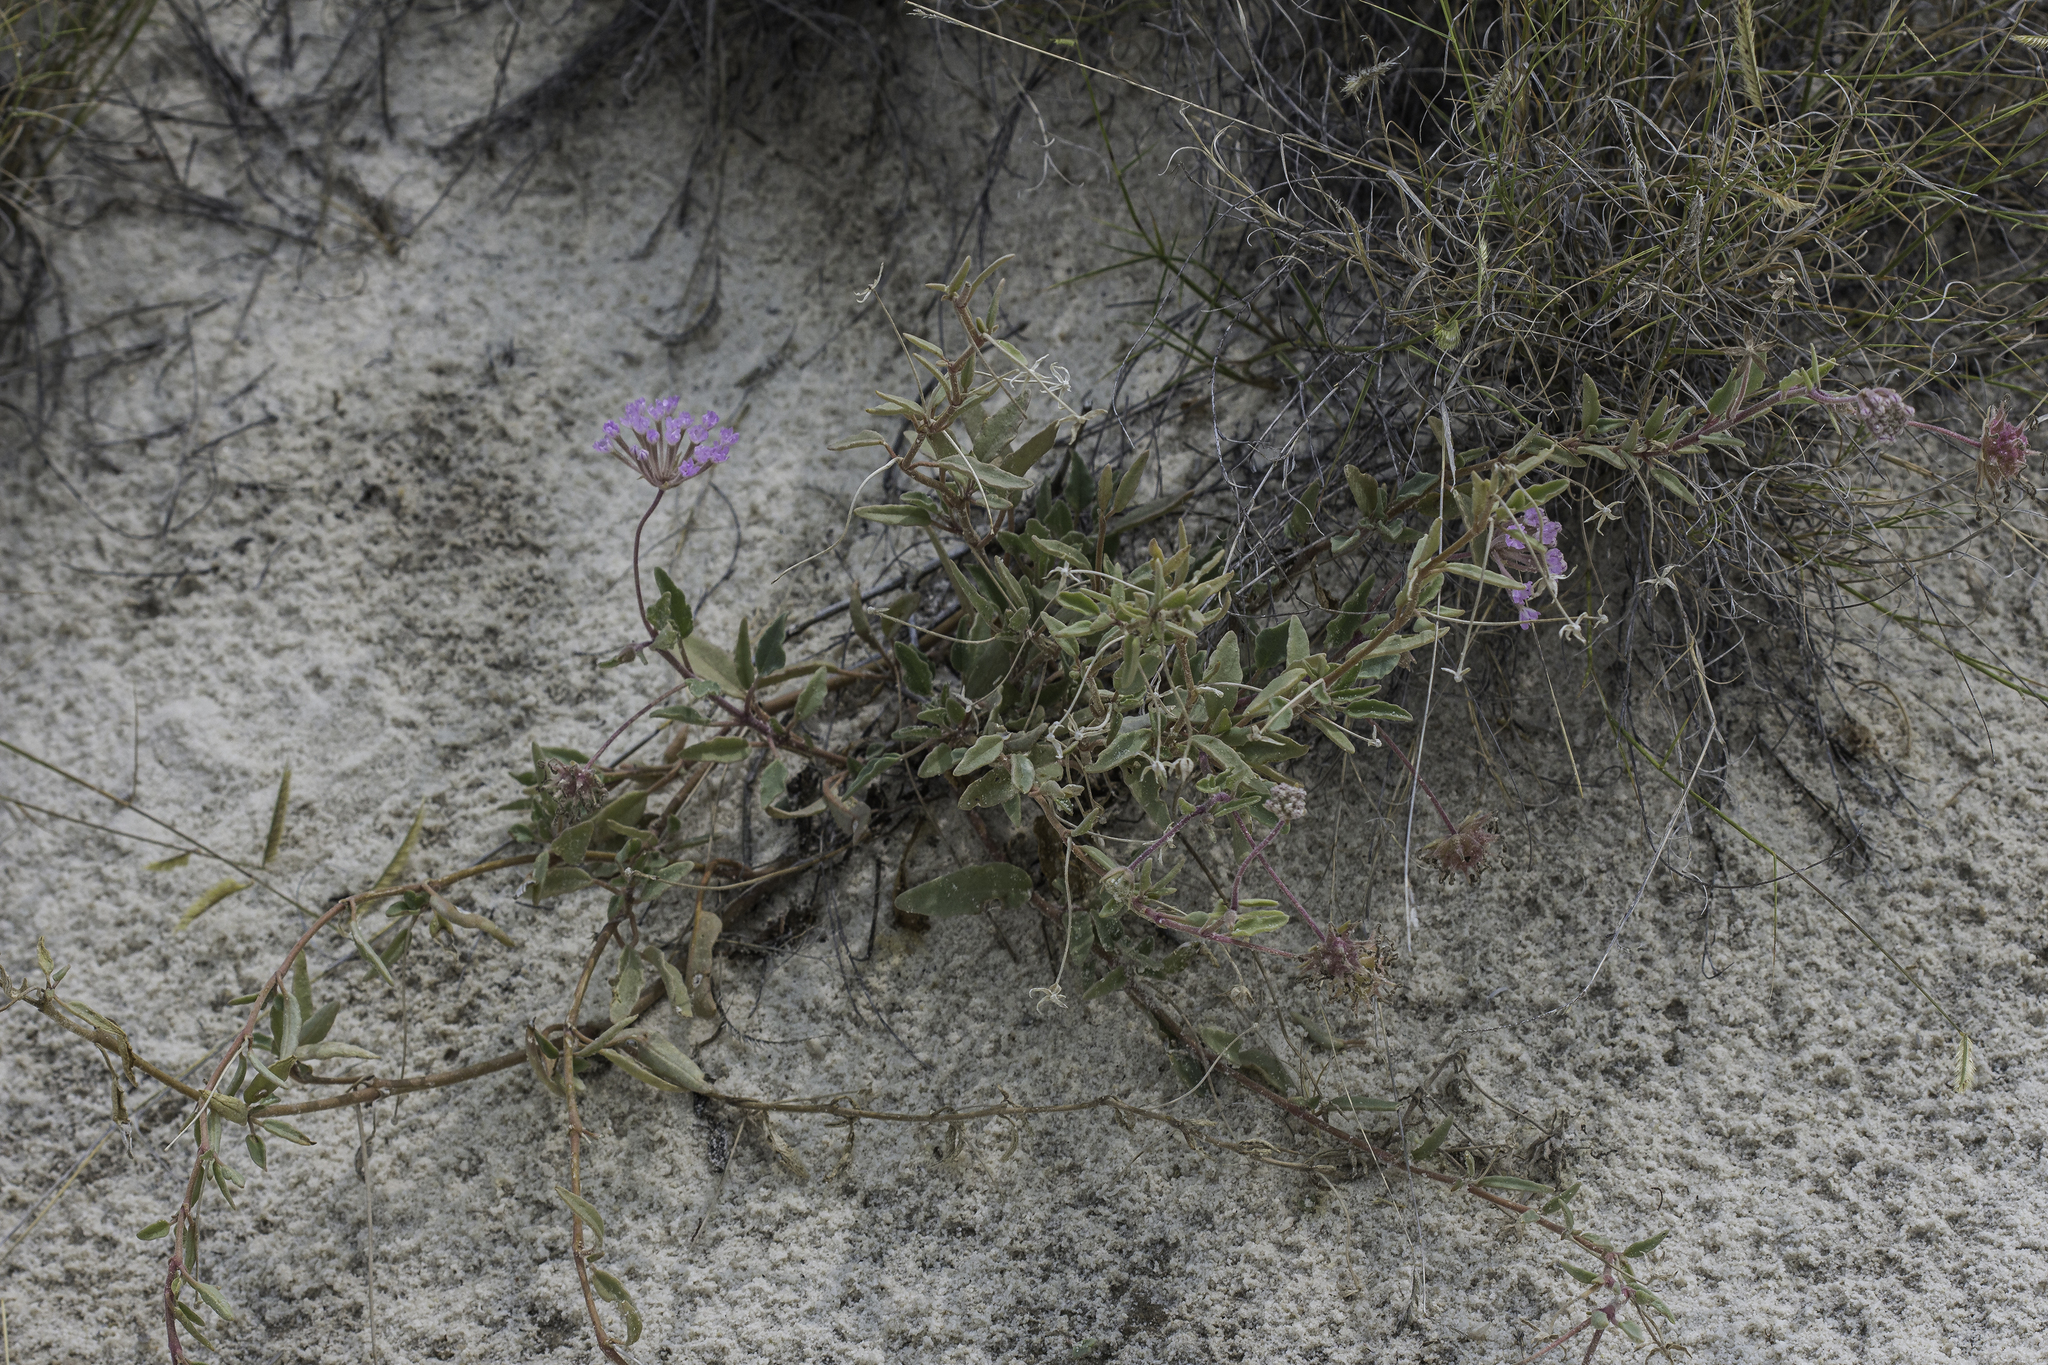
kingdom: Plantae
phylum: Tracheophyta
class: Magnoliopsida
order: Caryophyllales
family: Nyctaginaceae
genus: Abronia
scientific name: Abronia angustifolia
